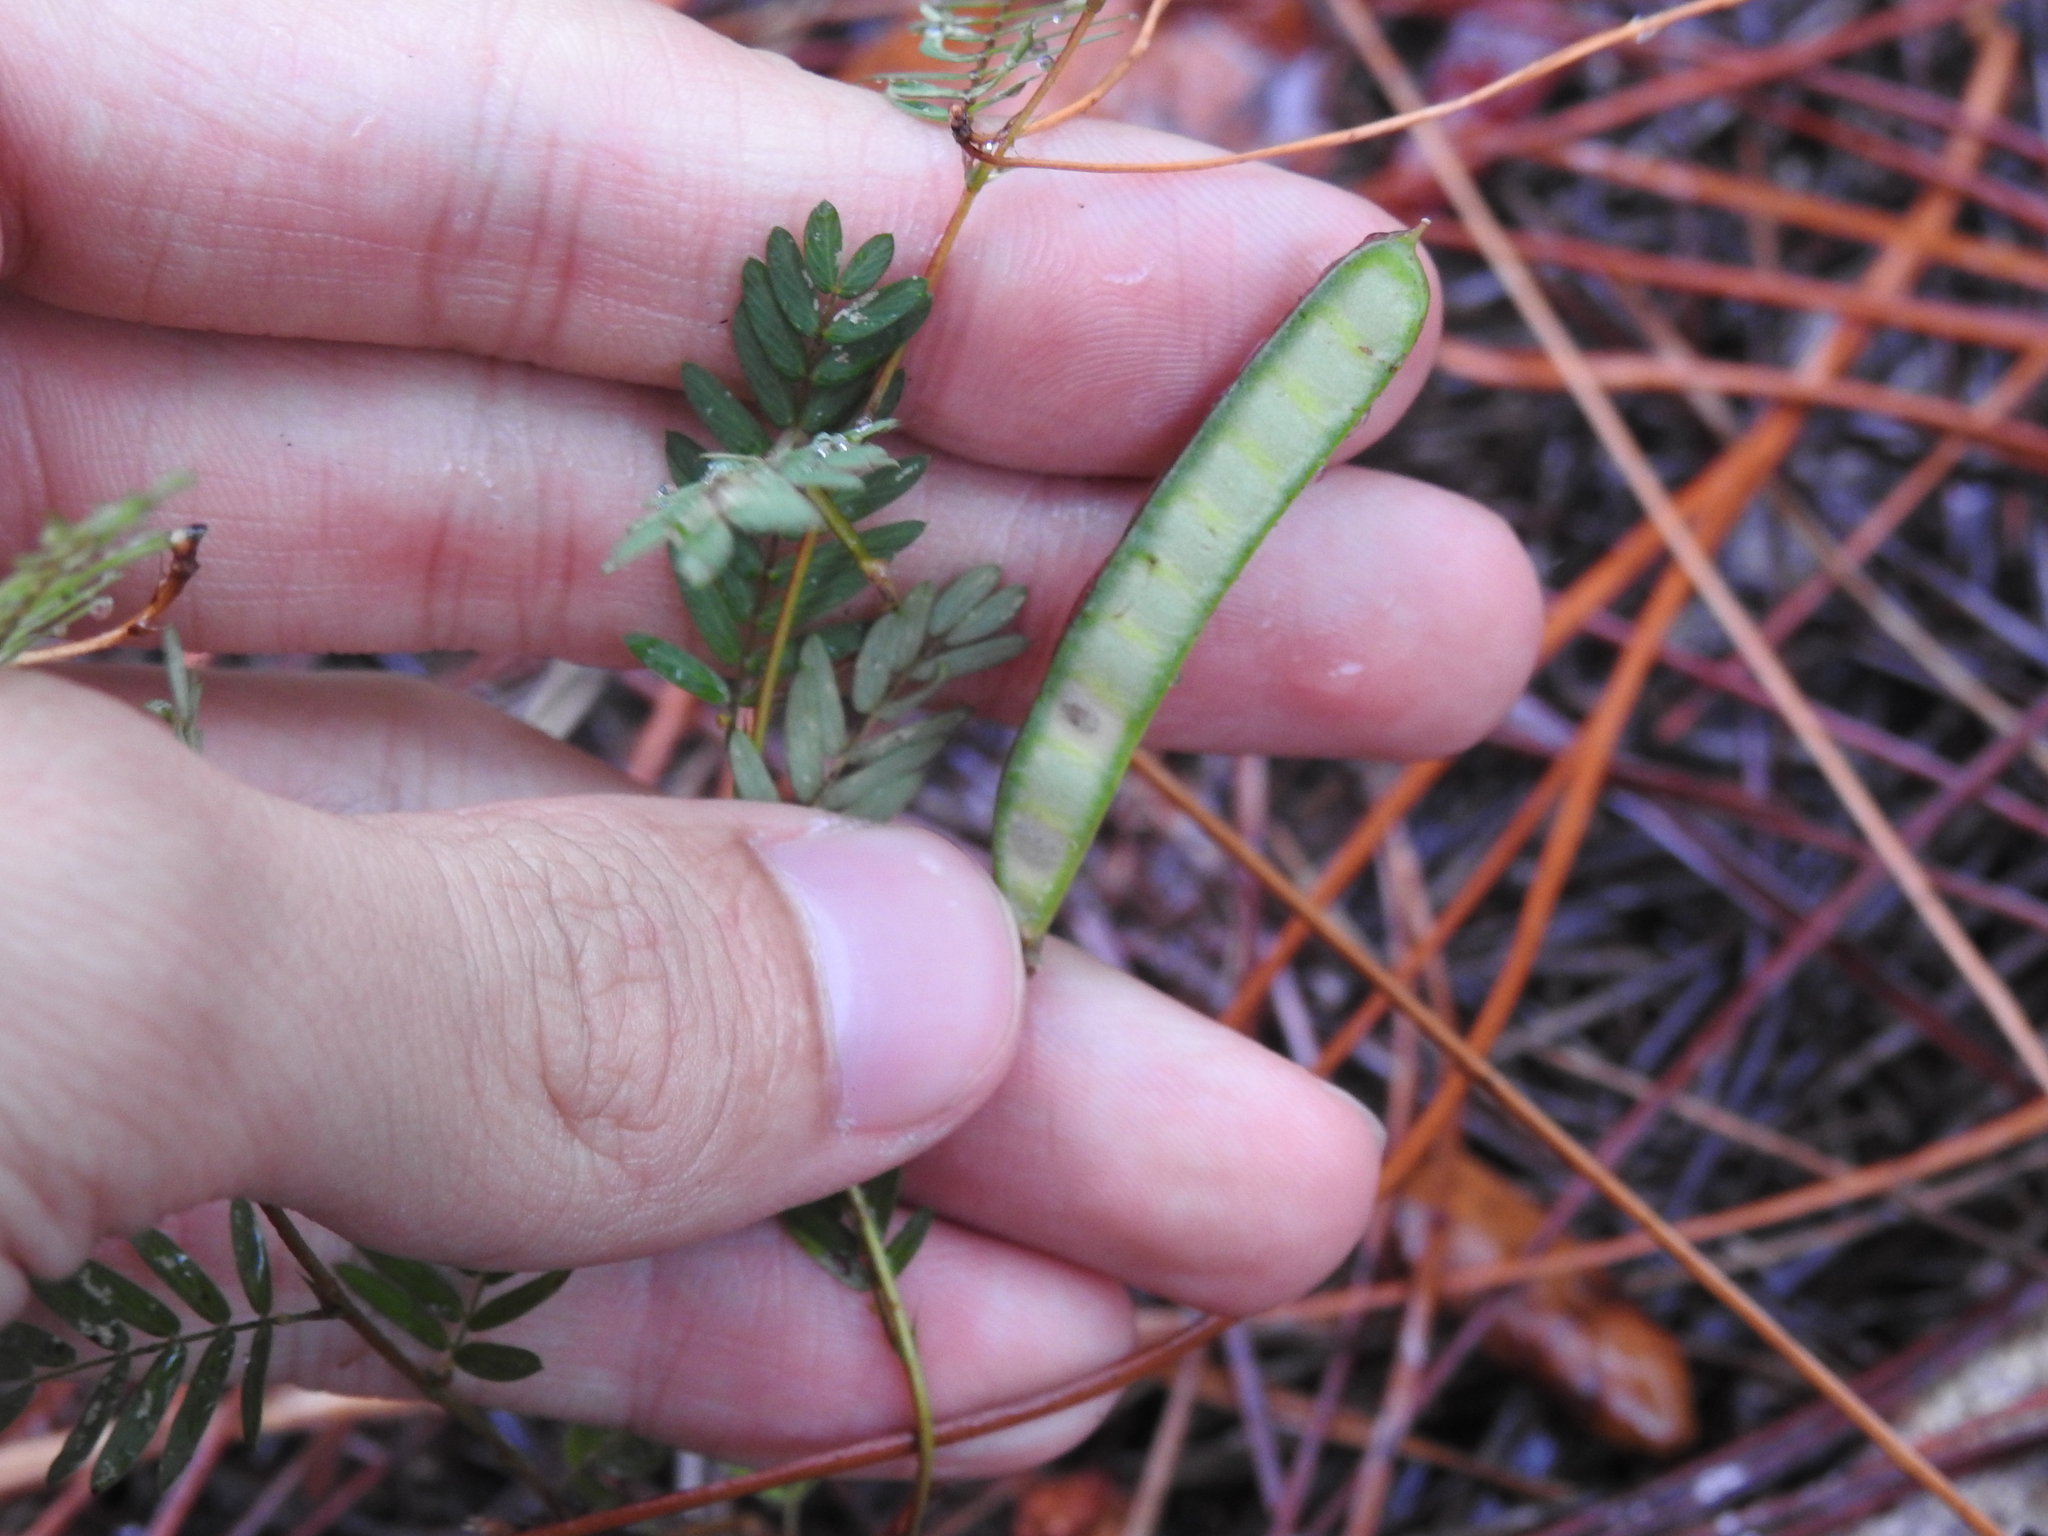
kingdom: Plantae
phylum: Tracheophyta
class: Magnoliopsida
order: Fabales
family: Fabaceae
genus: Chamaecrista
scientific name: Chamaecrista fasciculata
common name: Golden cassia
